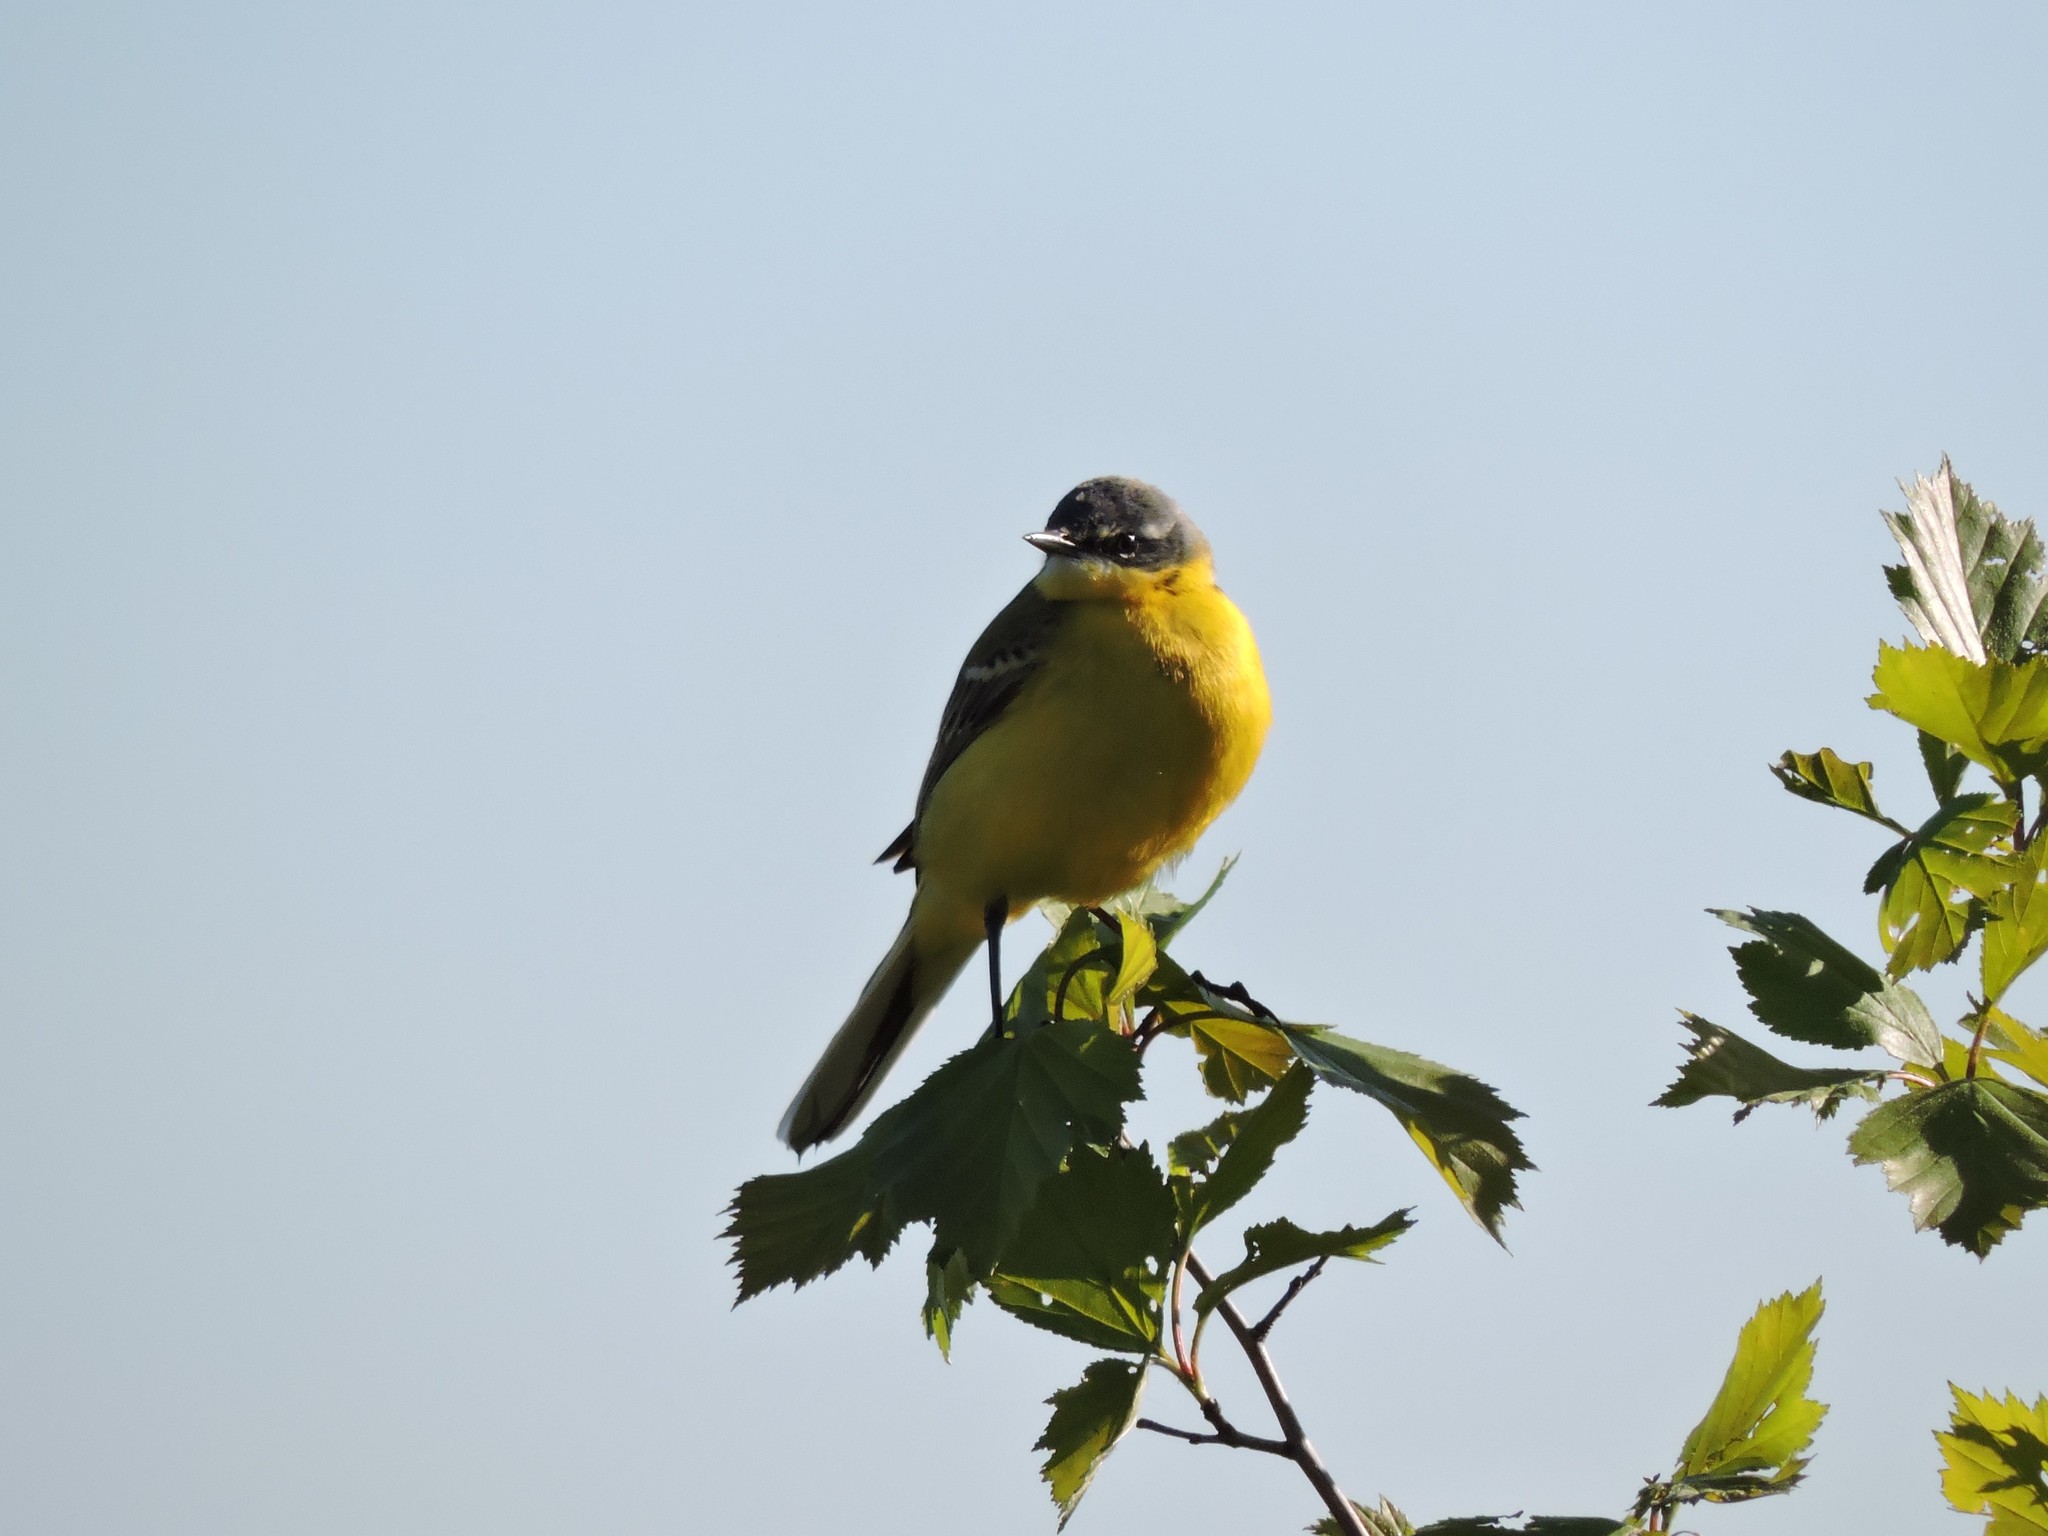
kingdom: Animalia
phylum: Chordata
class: Aves
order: Passeriformes
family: Motacillidae
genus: Motacilla
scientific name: Motacilla flava
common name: Western yellow wagtail
